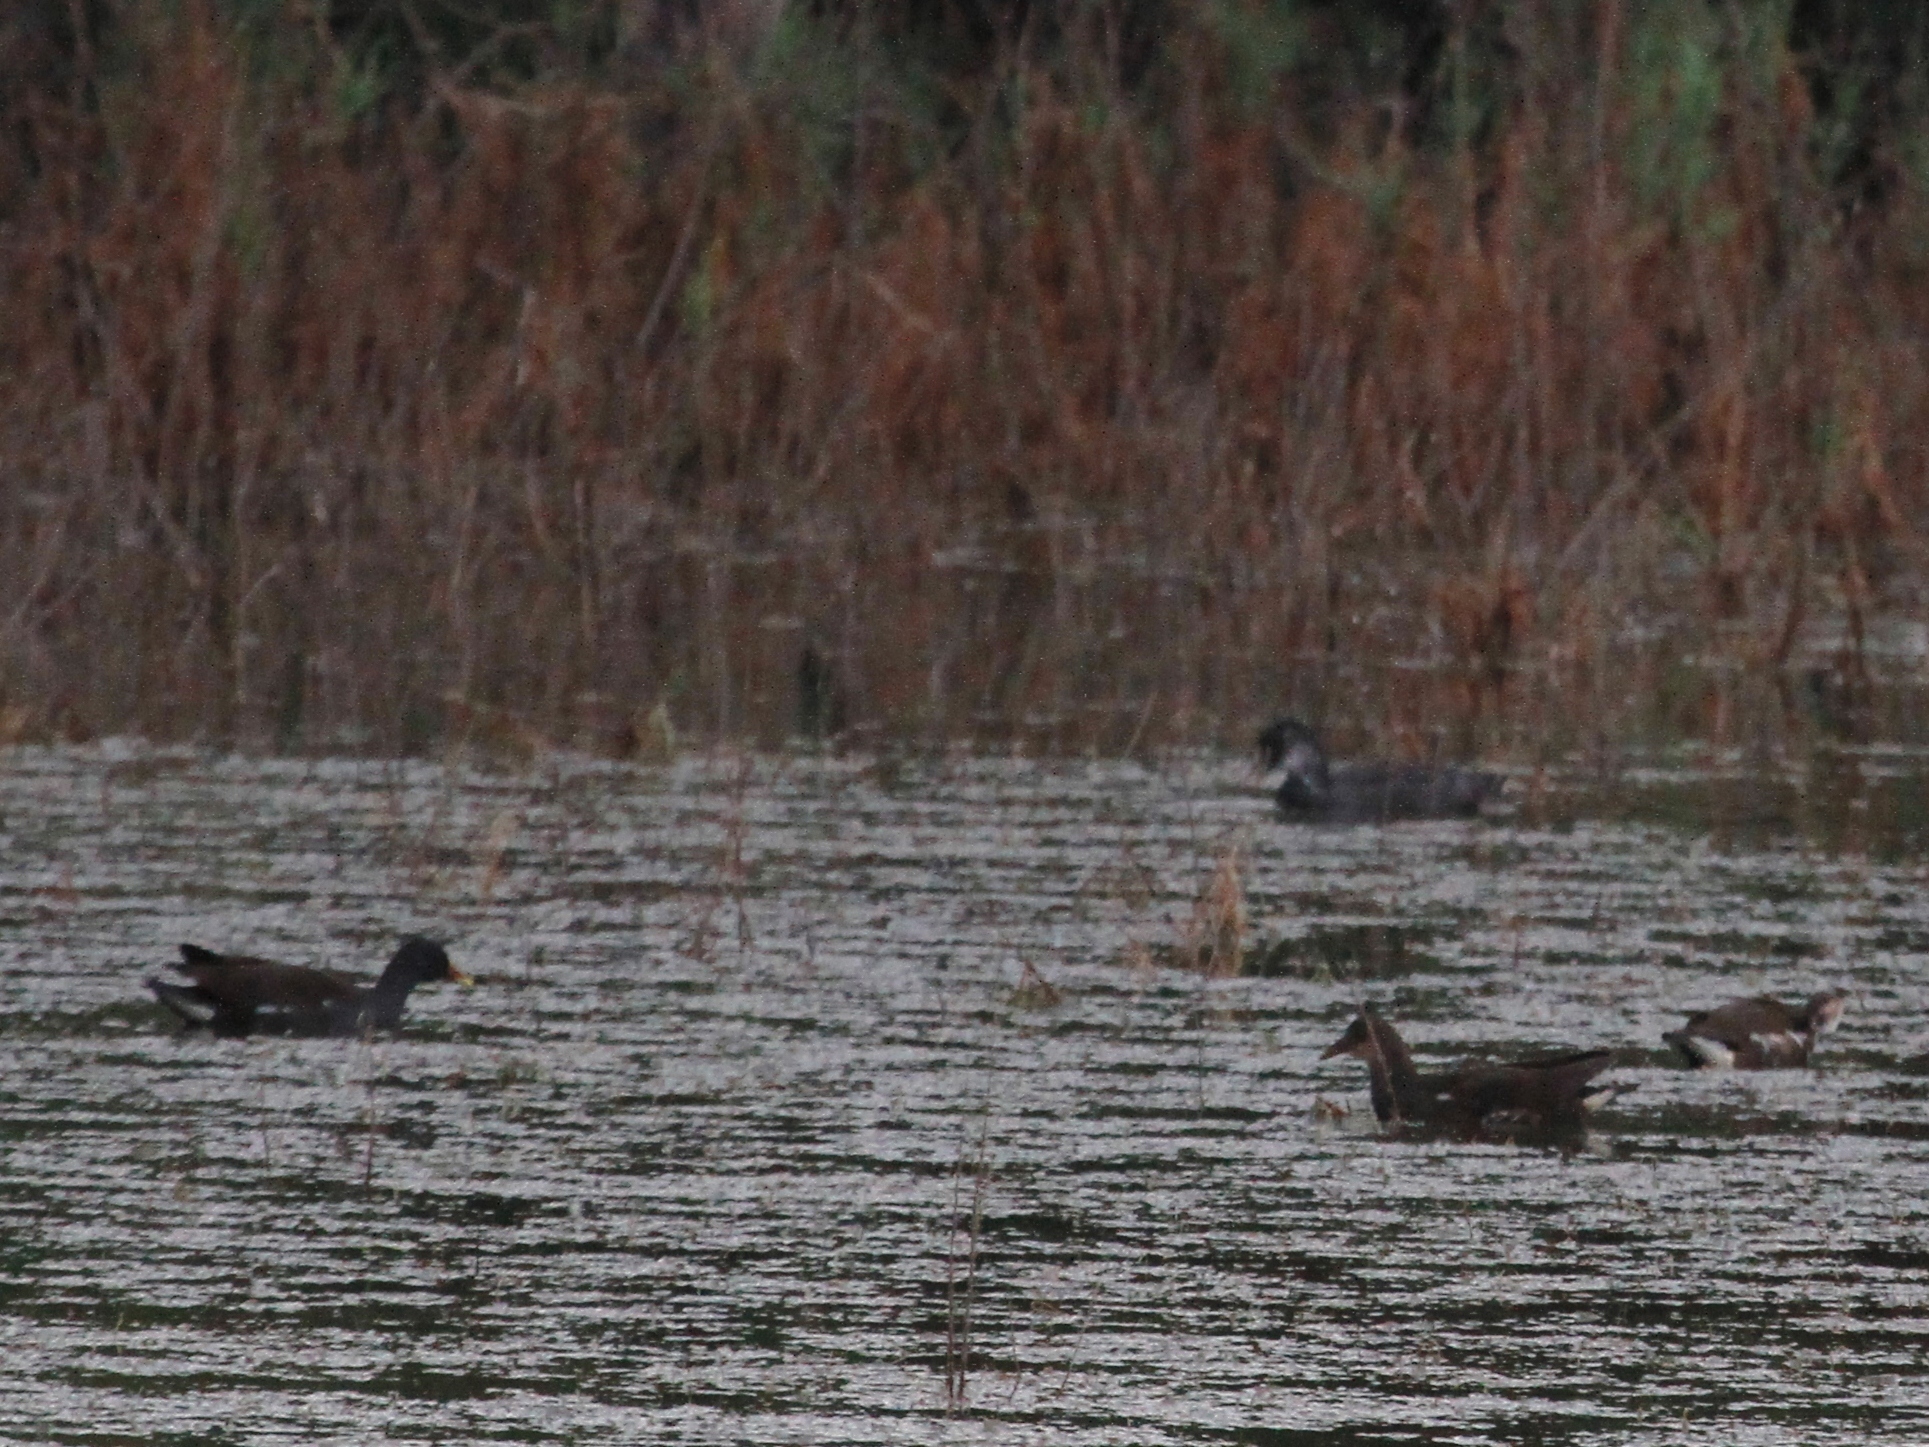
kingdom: Animalia
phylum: Chordata
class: Aves
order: Gruiformes
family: Rallidae
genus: Gallinula
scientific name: Gallinula chloropus
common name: Common moorhen
